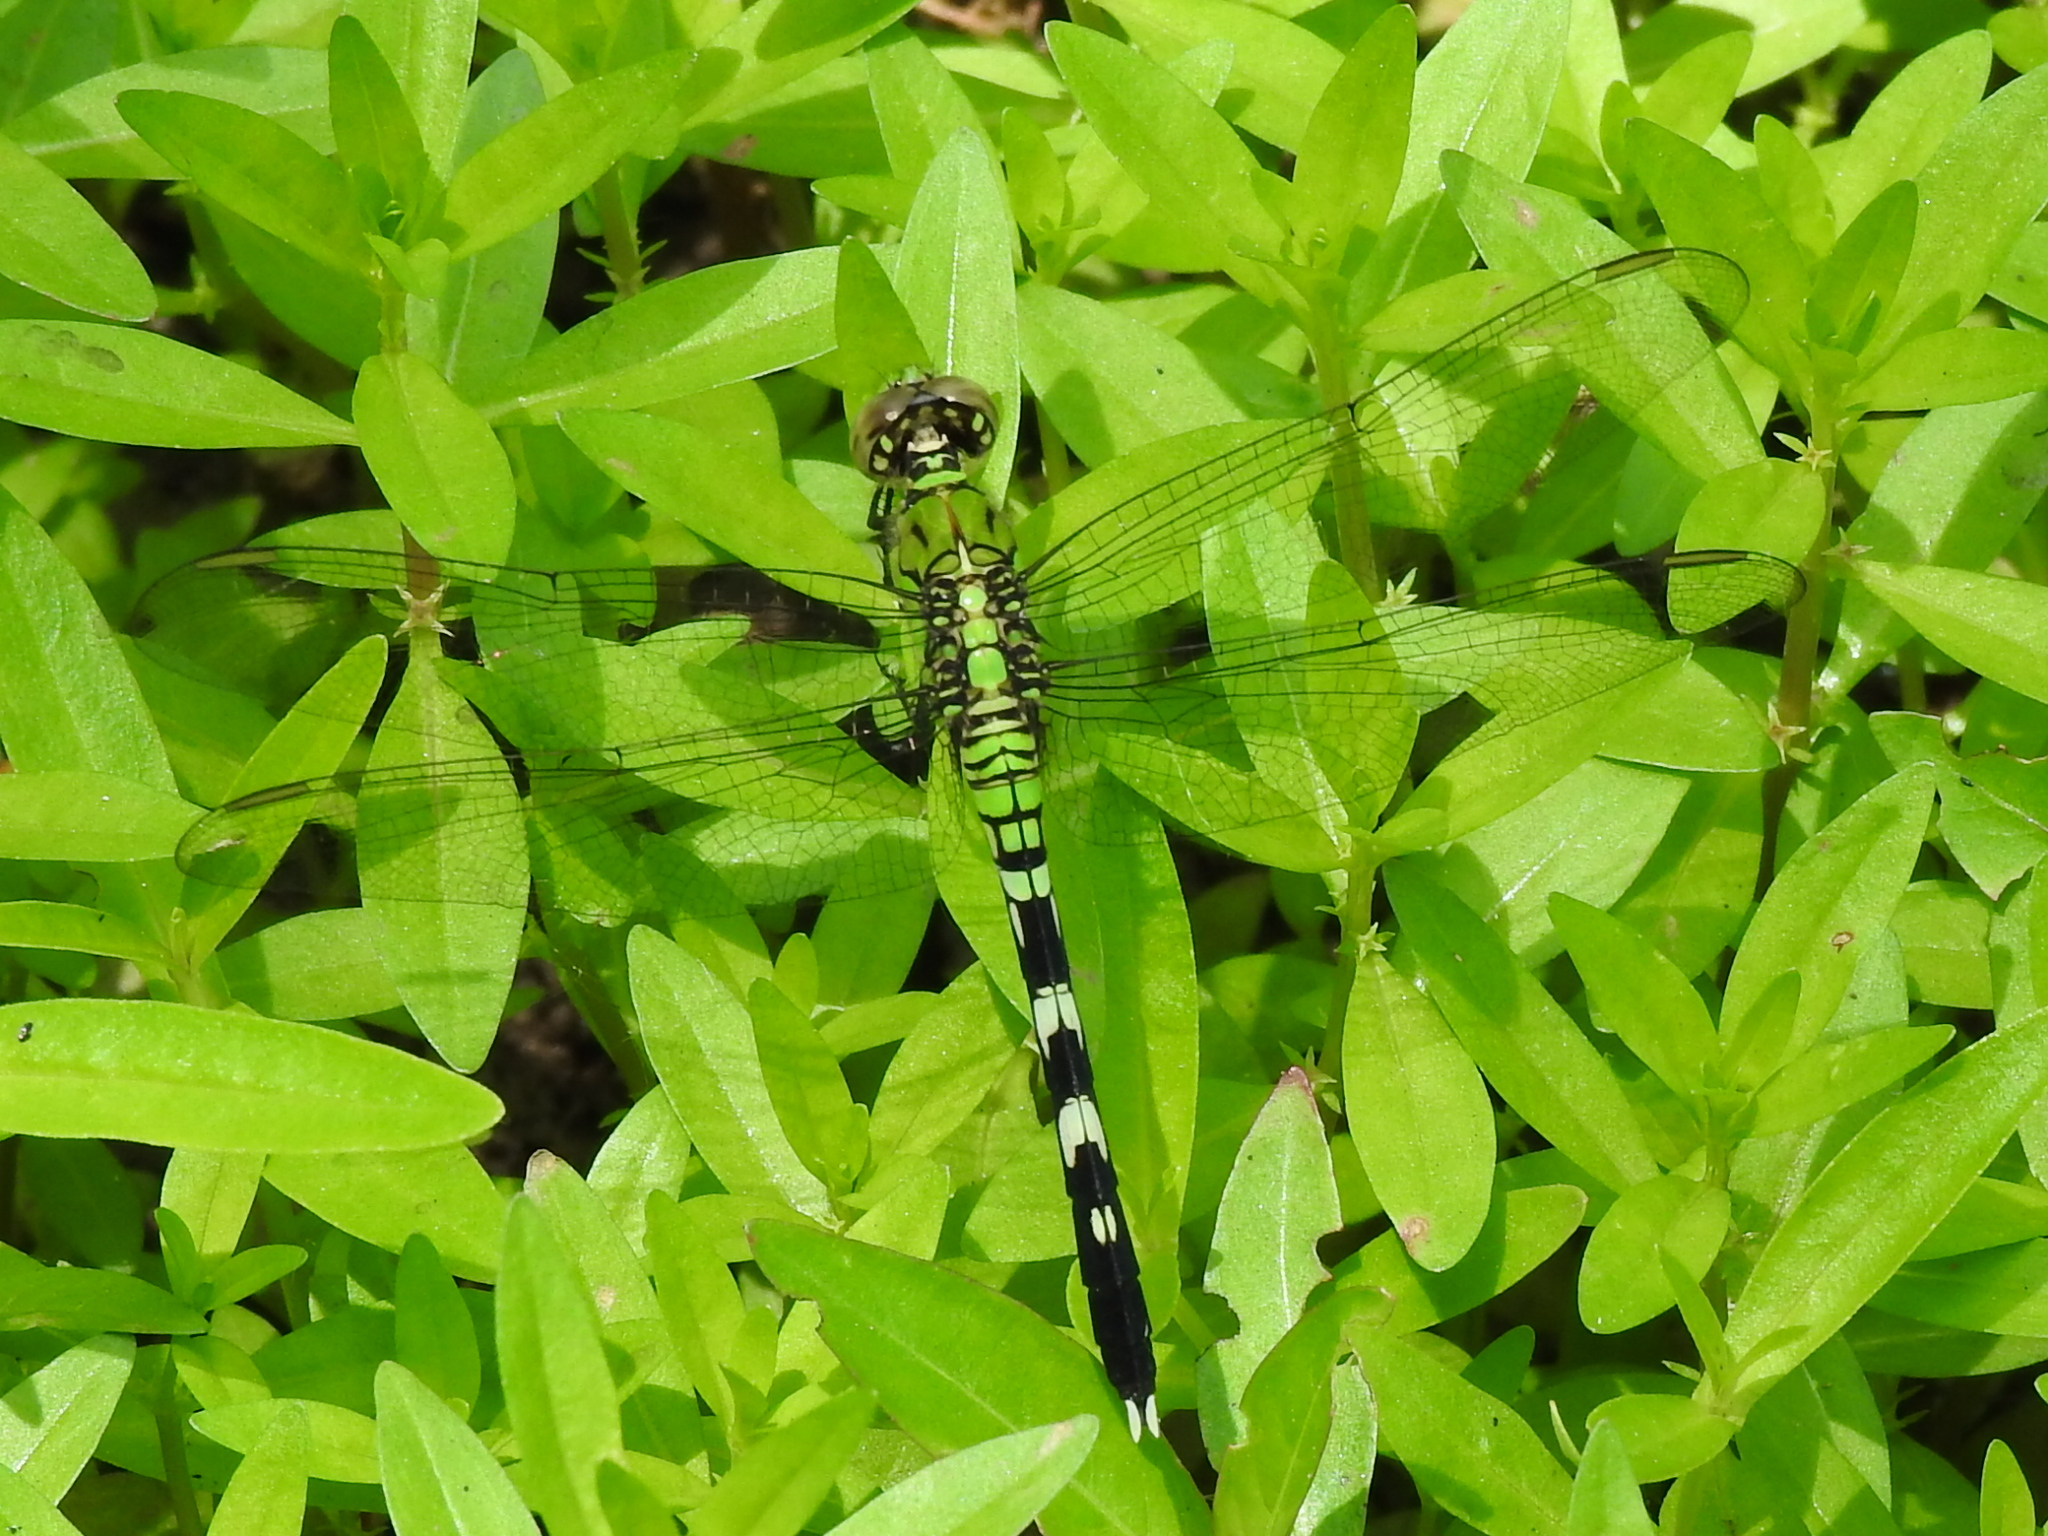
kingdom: Animalia
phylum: Arthropoda
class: Insecta
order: Odonata
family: Libellulidae
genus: Erythemis
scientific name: Erythemis simplicicollis
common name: Eastern pondhawk
